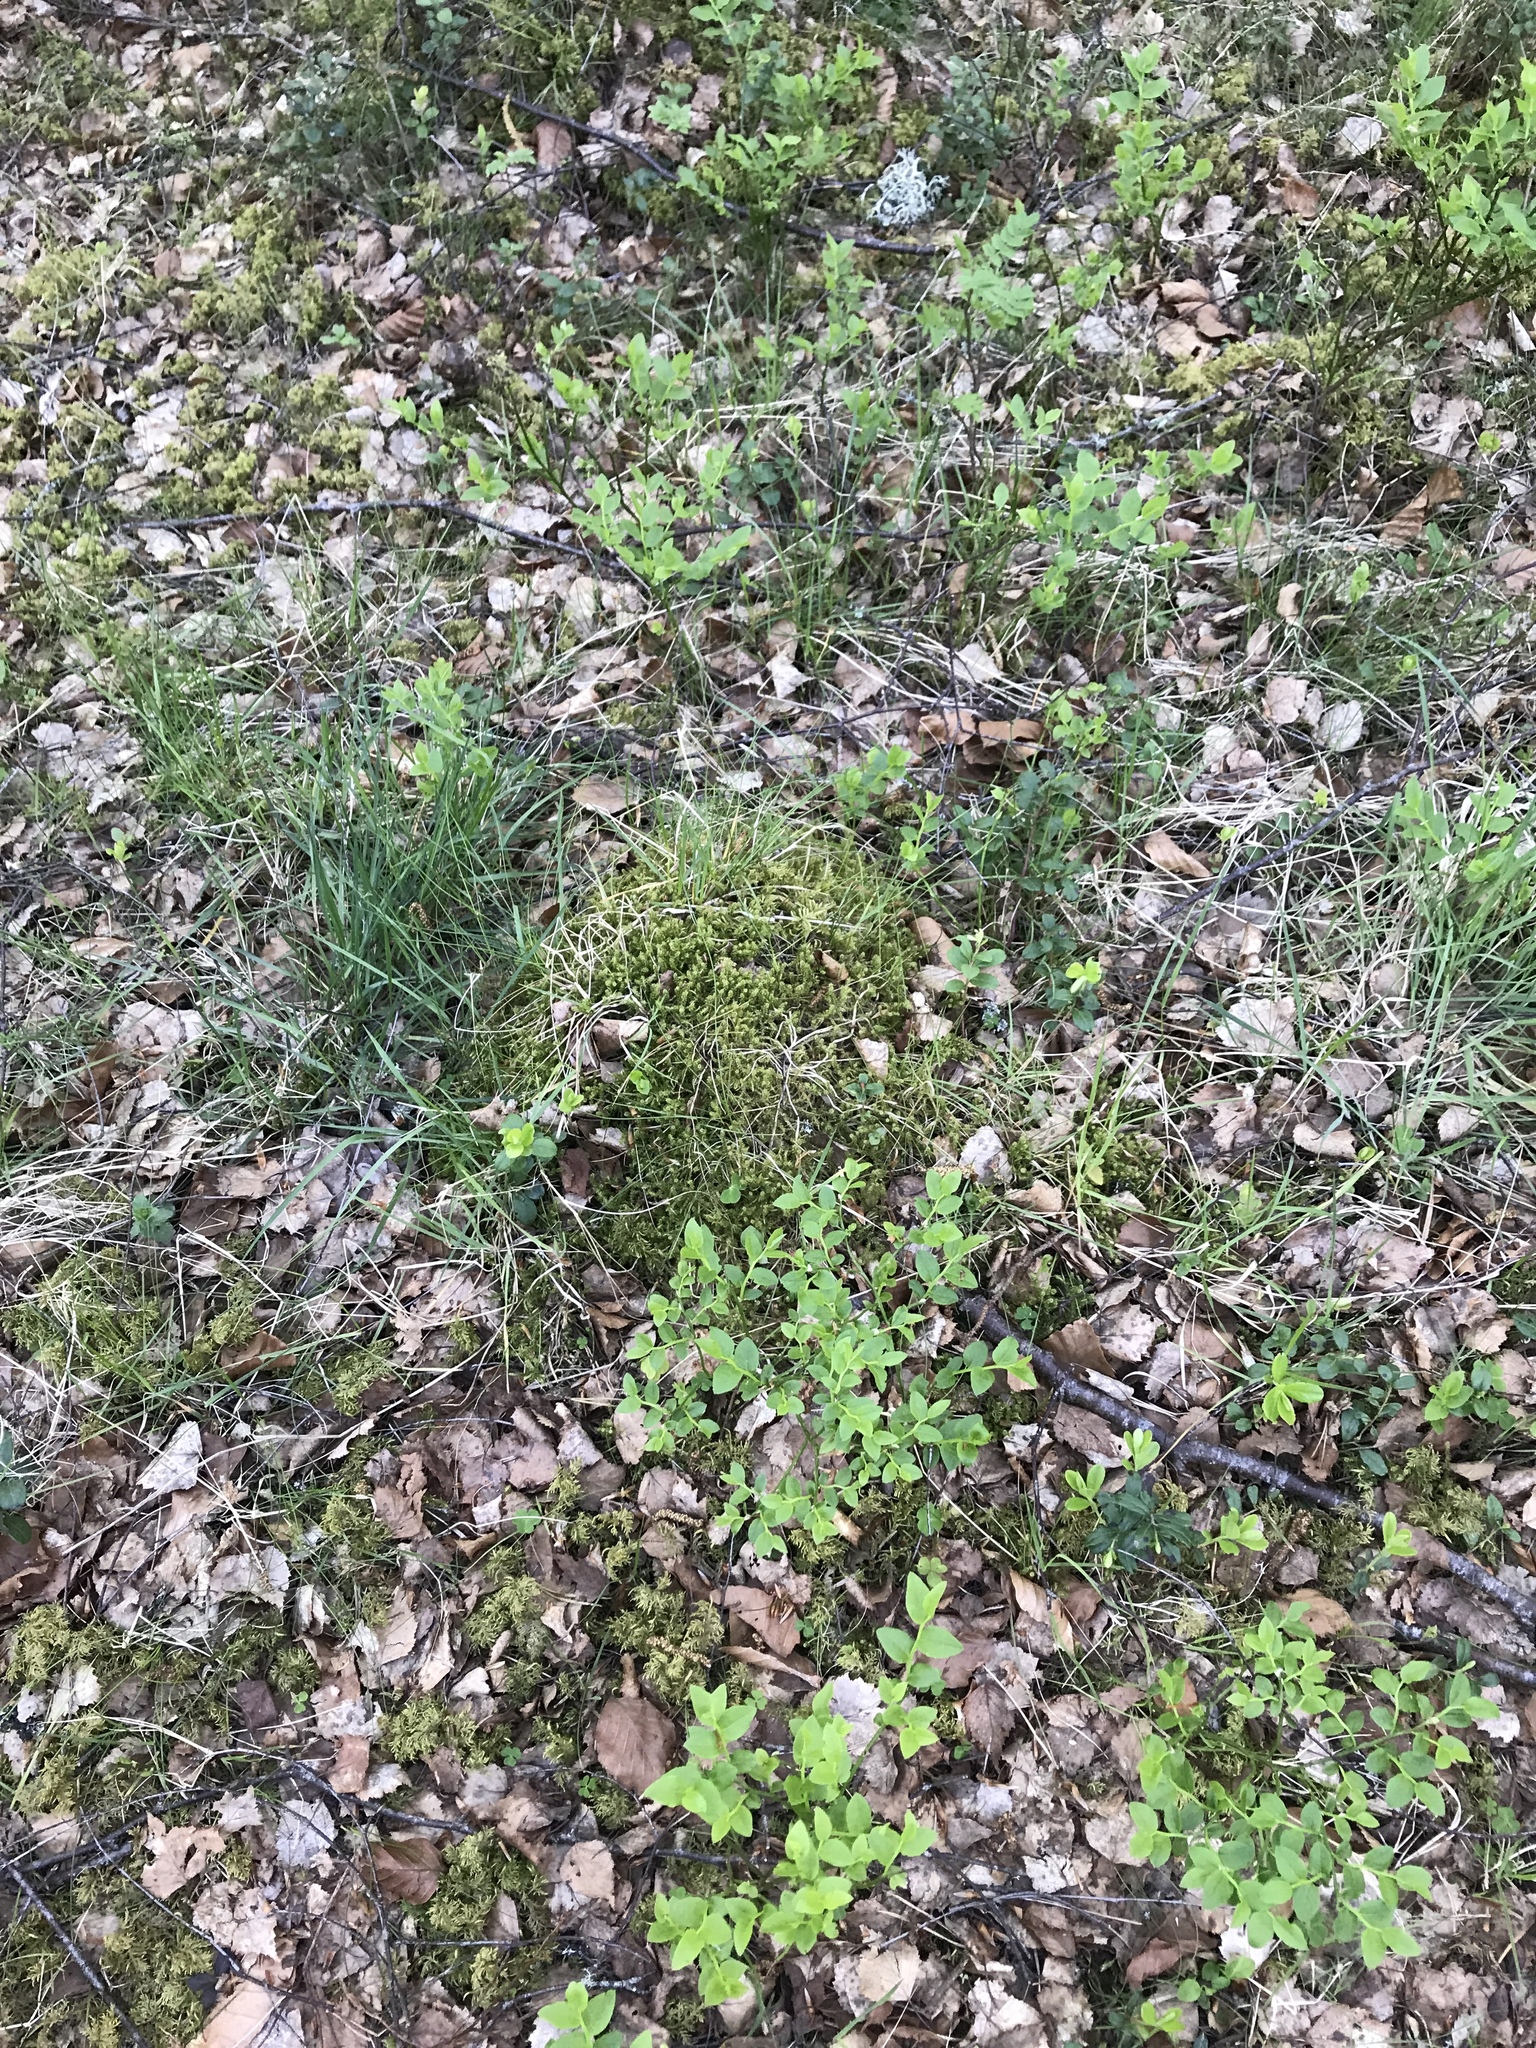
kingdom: Plantae
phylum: Bryophyta
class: Bryopsida
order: Hypnales
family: Hylocomiaceae
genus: Rhytidiadelphus
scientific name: Rhytidiadelphus squarrosus
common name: Springy turf-moss
